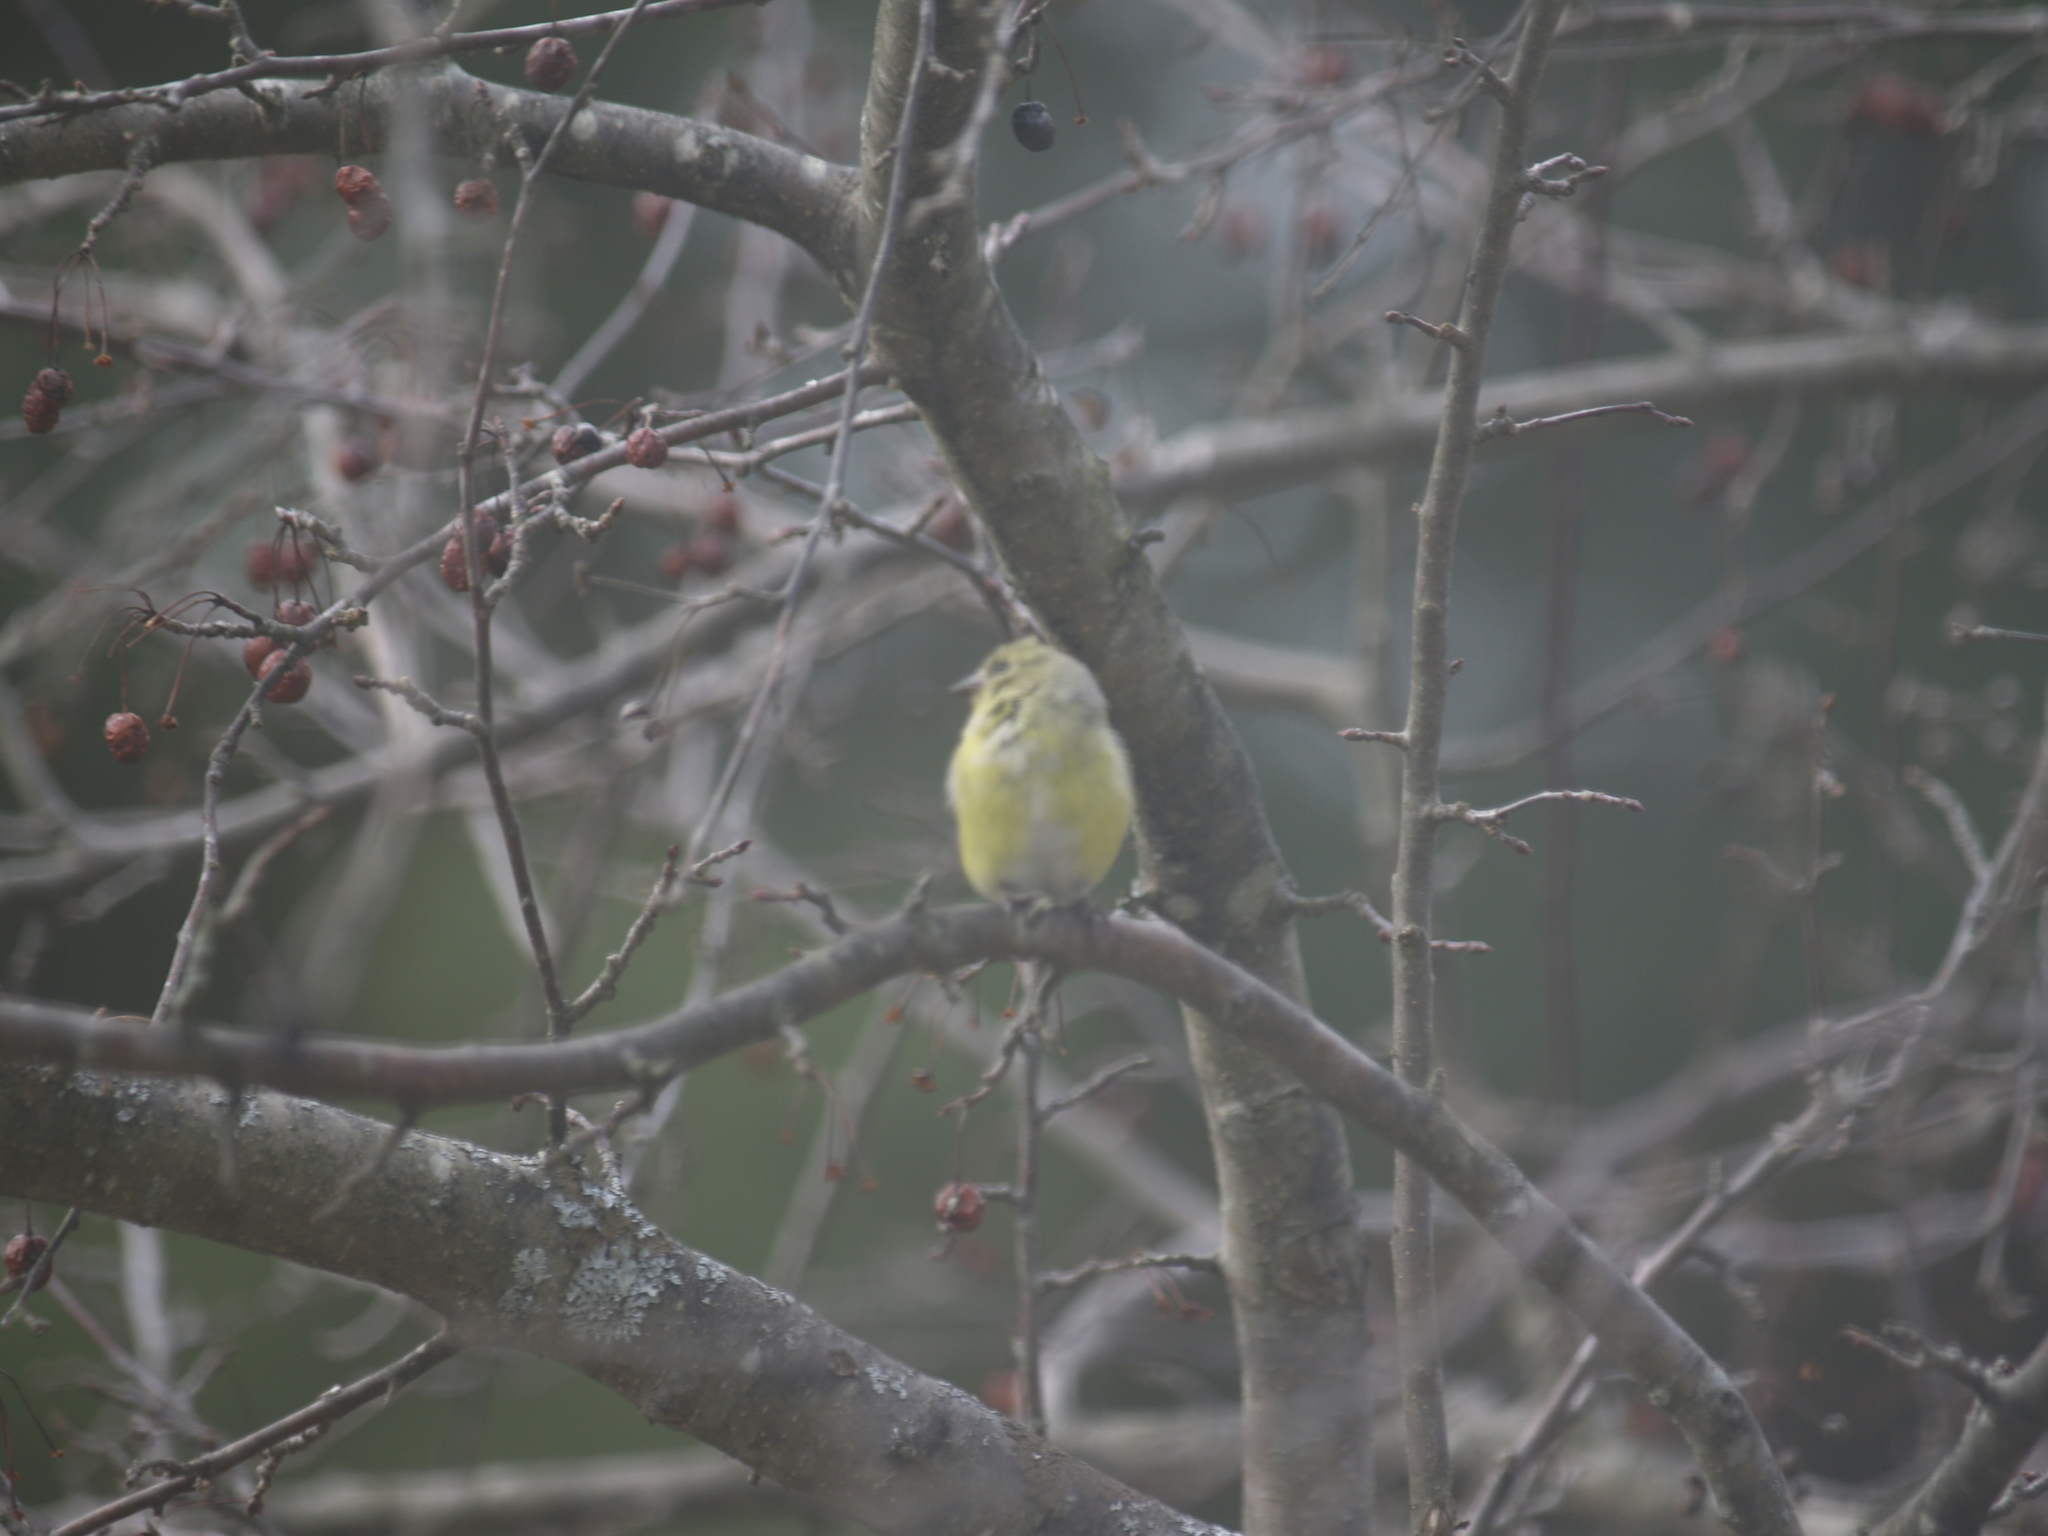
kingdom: Animalia
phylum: Chordata
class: Aves
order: Passeriformes
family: Fringillidae
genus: Spinus
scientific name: Spinus tristis
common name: American goldfinch
